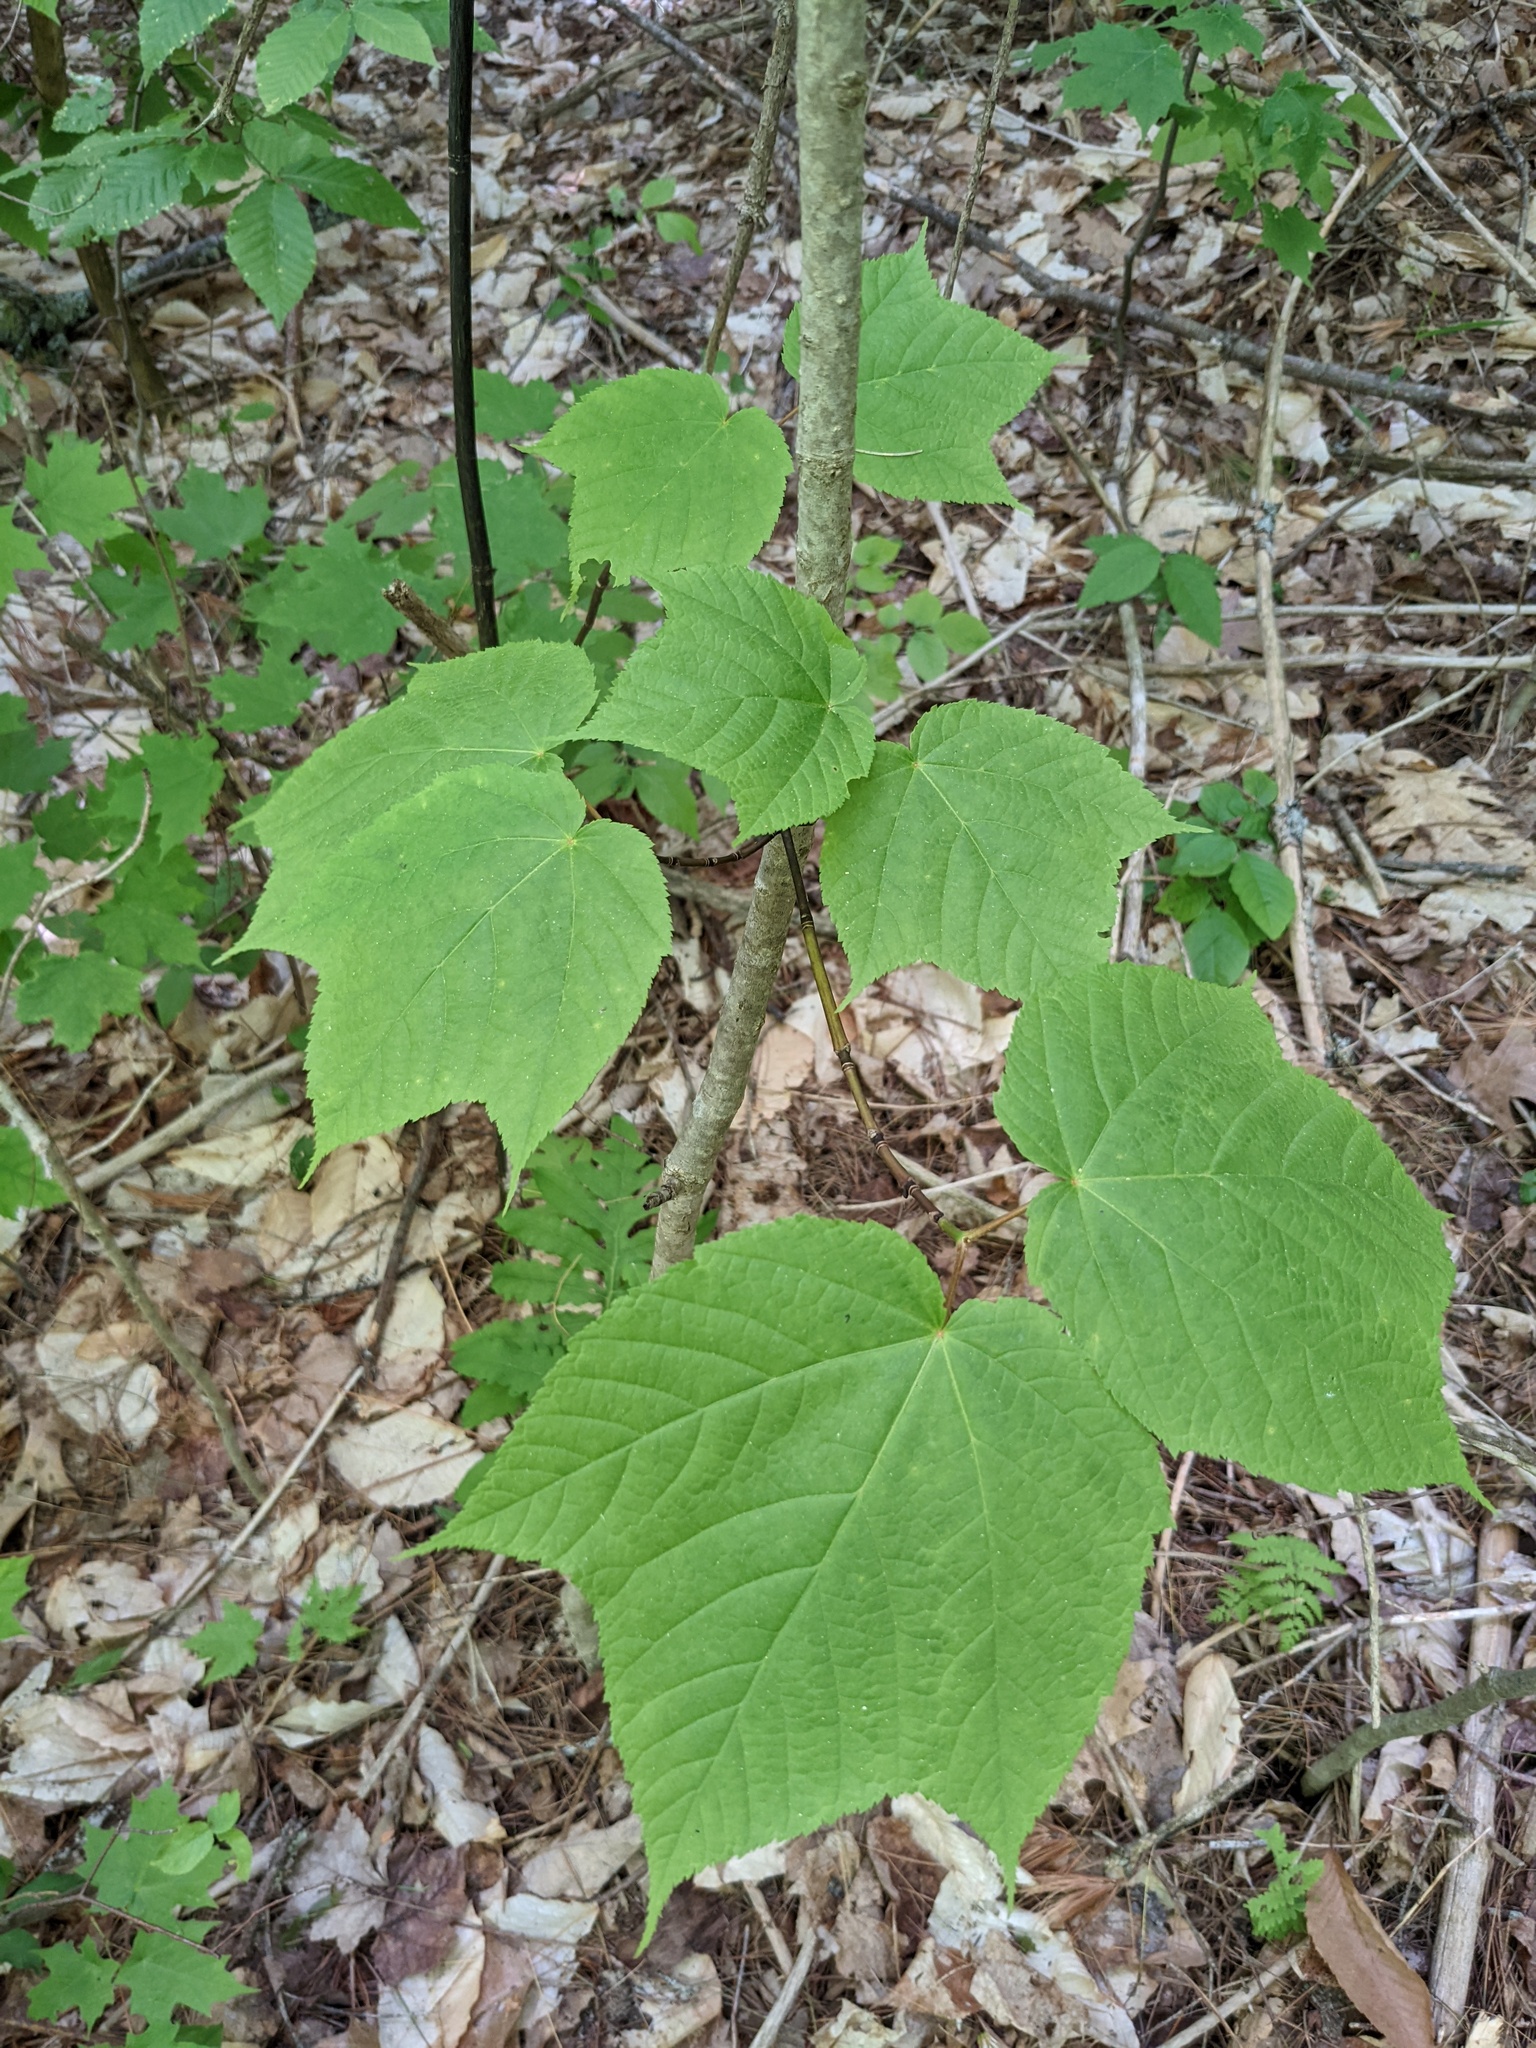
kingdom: Plantae
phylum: Tracheophyta
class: Magnoliopsida
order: Sapindales
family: Sapindaceae
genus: Acer
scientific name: Acer pensylvanicum
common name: Moosewood
